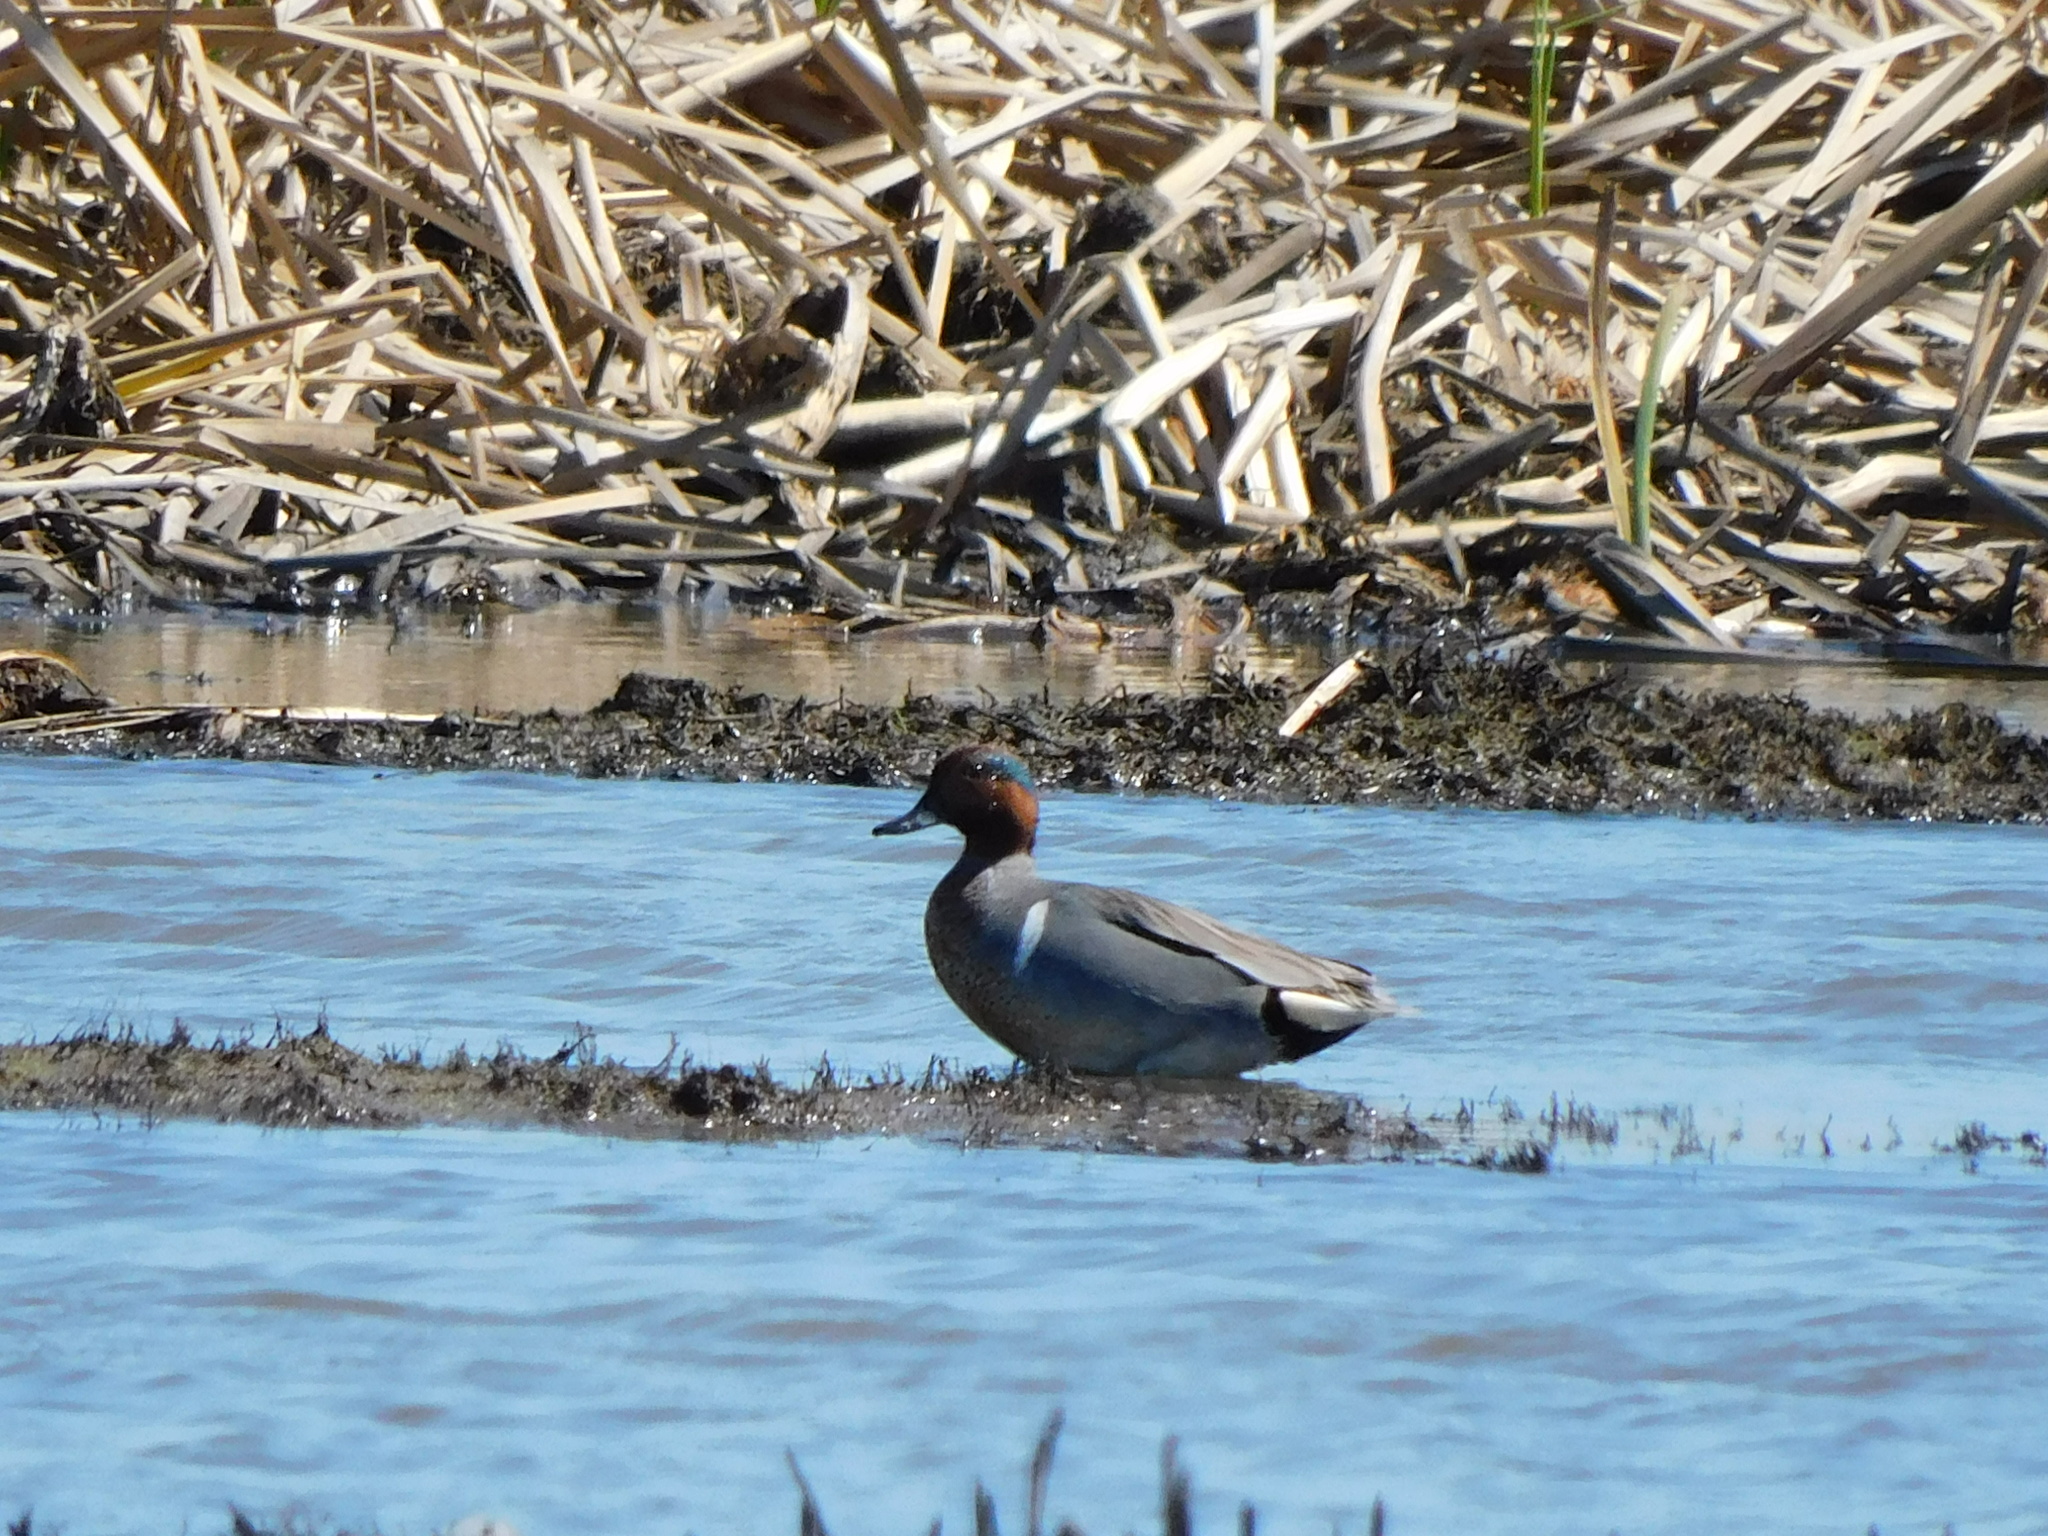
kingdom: Animalia
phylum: Chordata
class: Aves
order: Anseriformes
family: Anatidae
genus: Anas
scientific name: Anas crecca
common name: Eurasian teal
